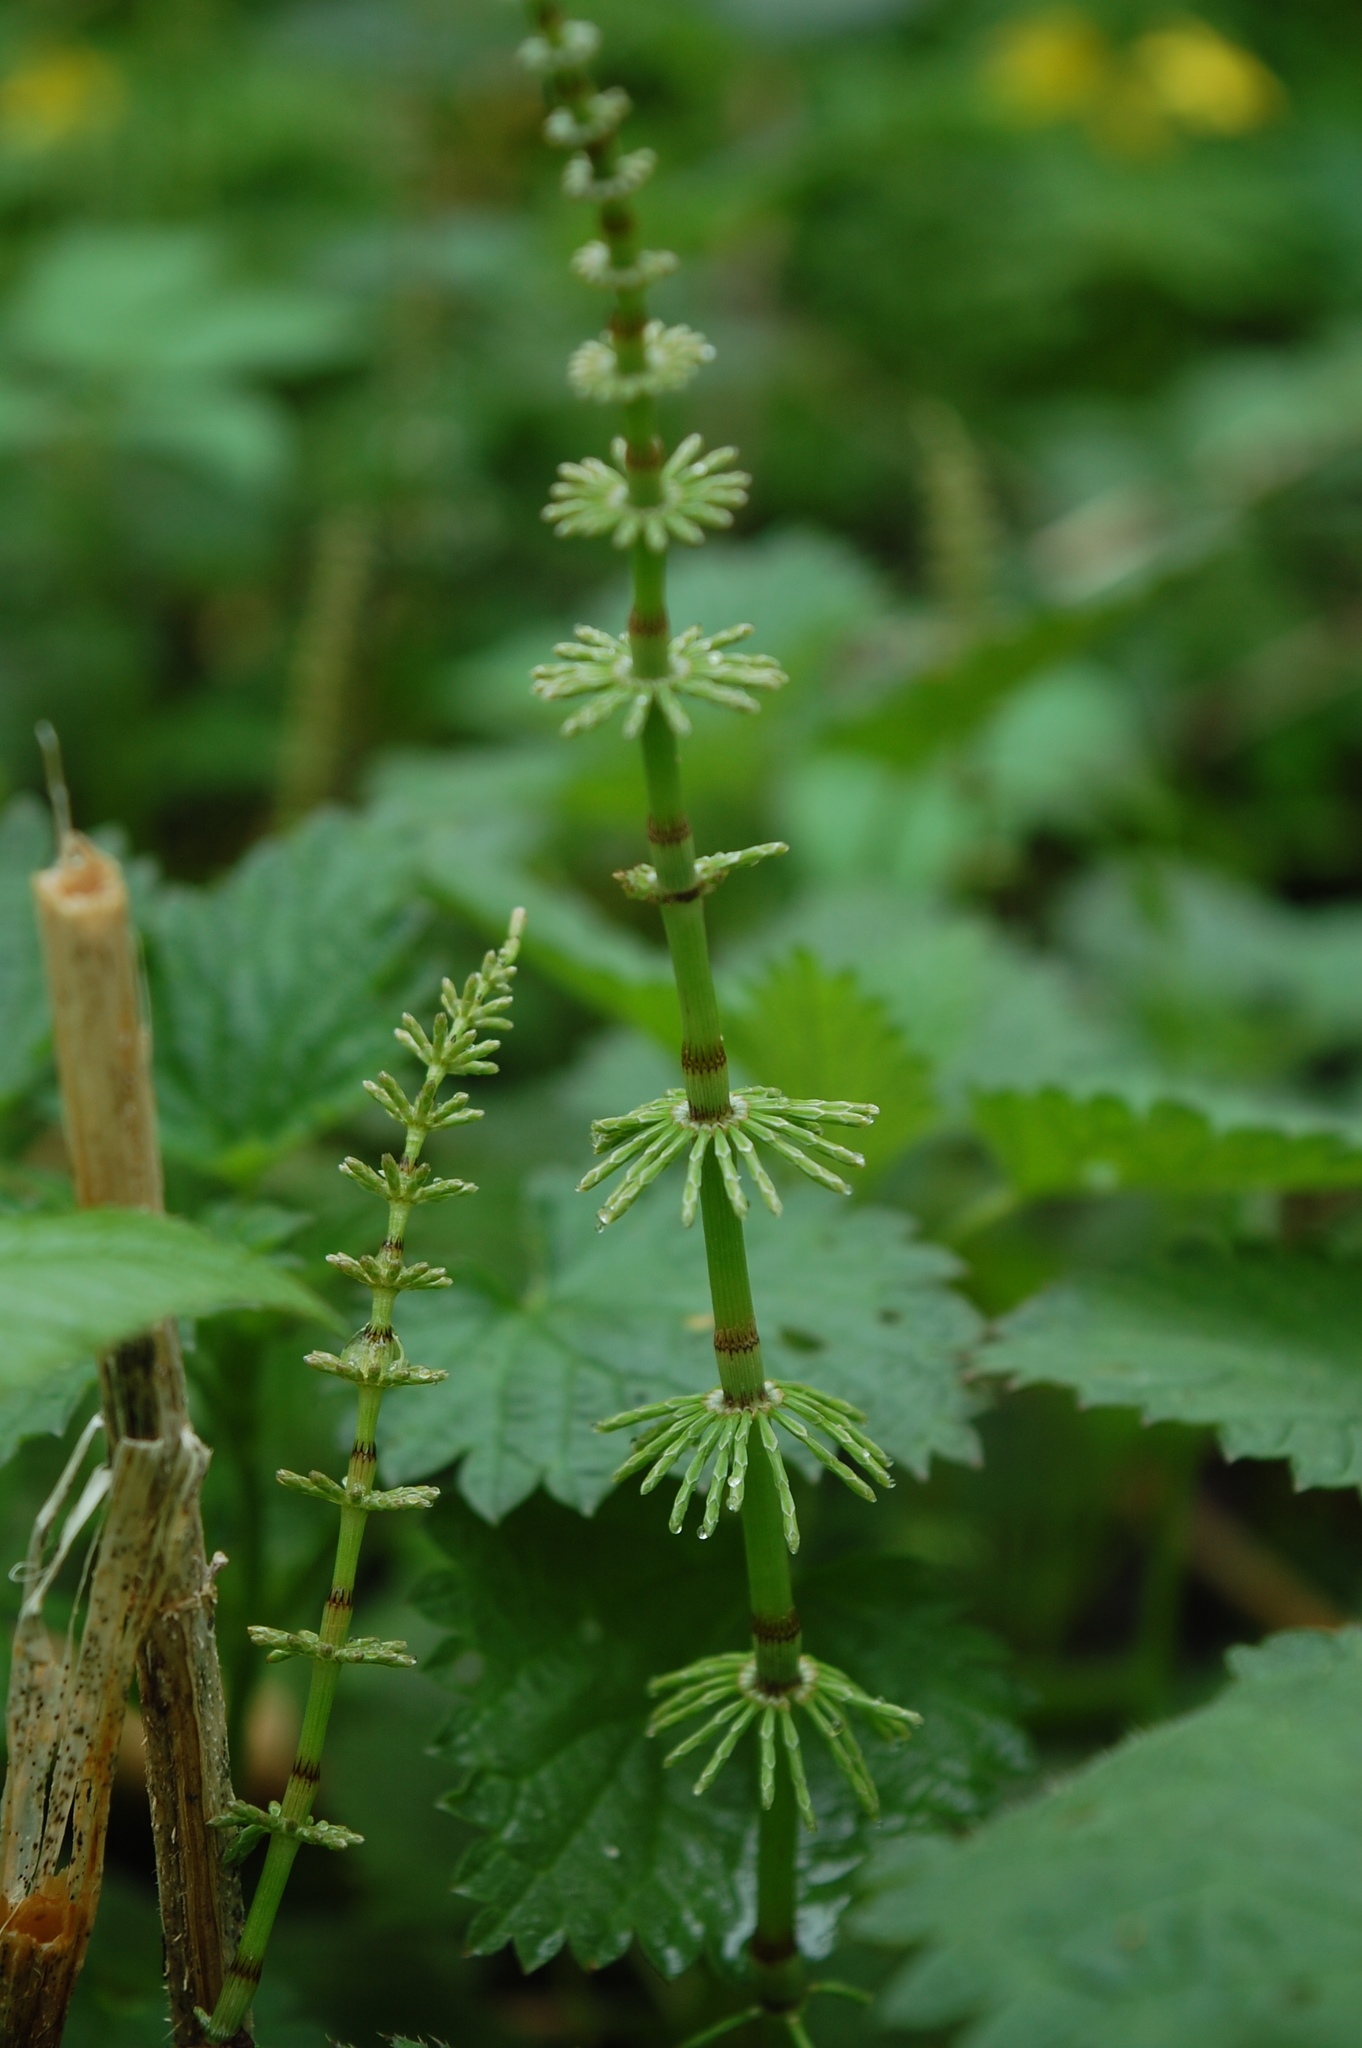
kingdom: Plantae
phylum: Tracheophyta
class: Polypodiopsida
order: Equisetales
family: Equisetaceae
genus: Equisetum
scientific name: Equisetum pratense
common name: Meadow horsetail
